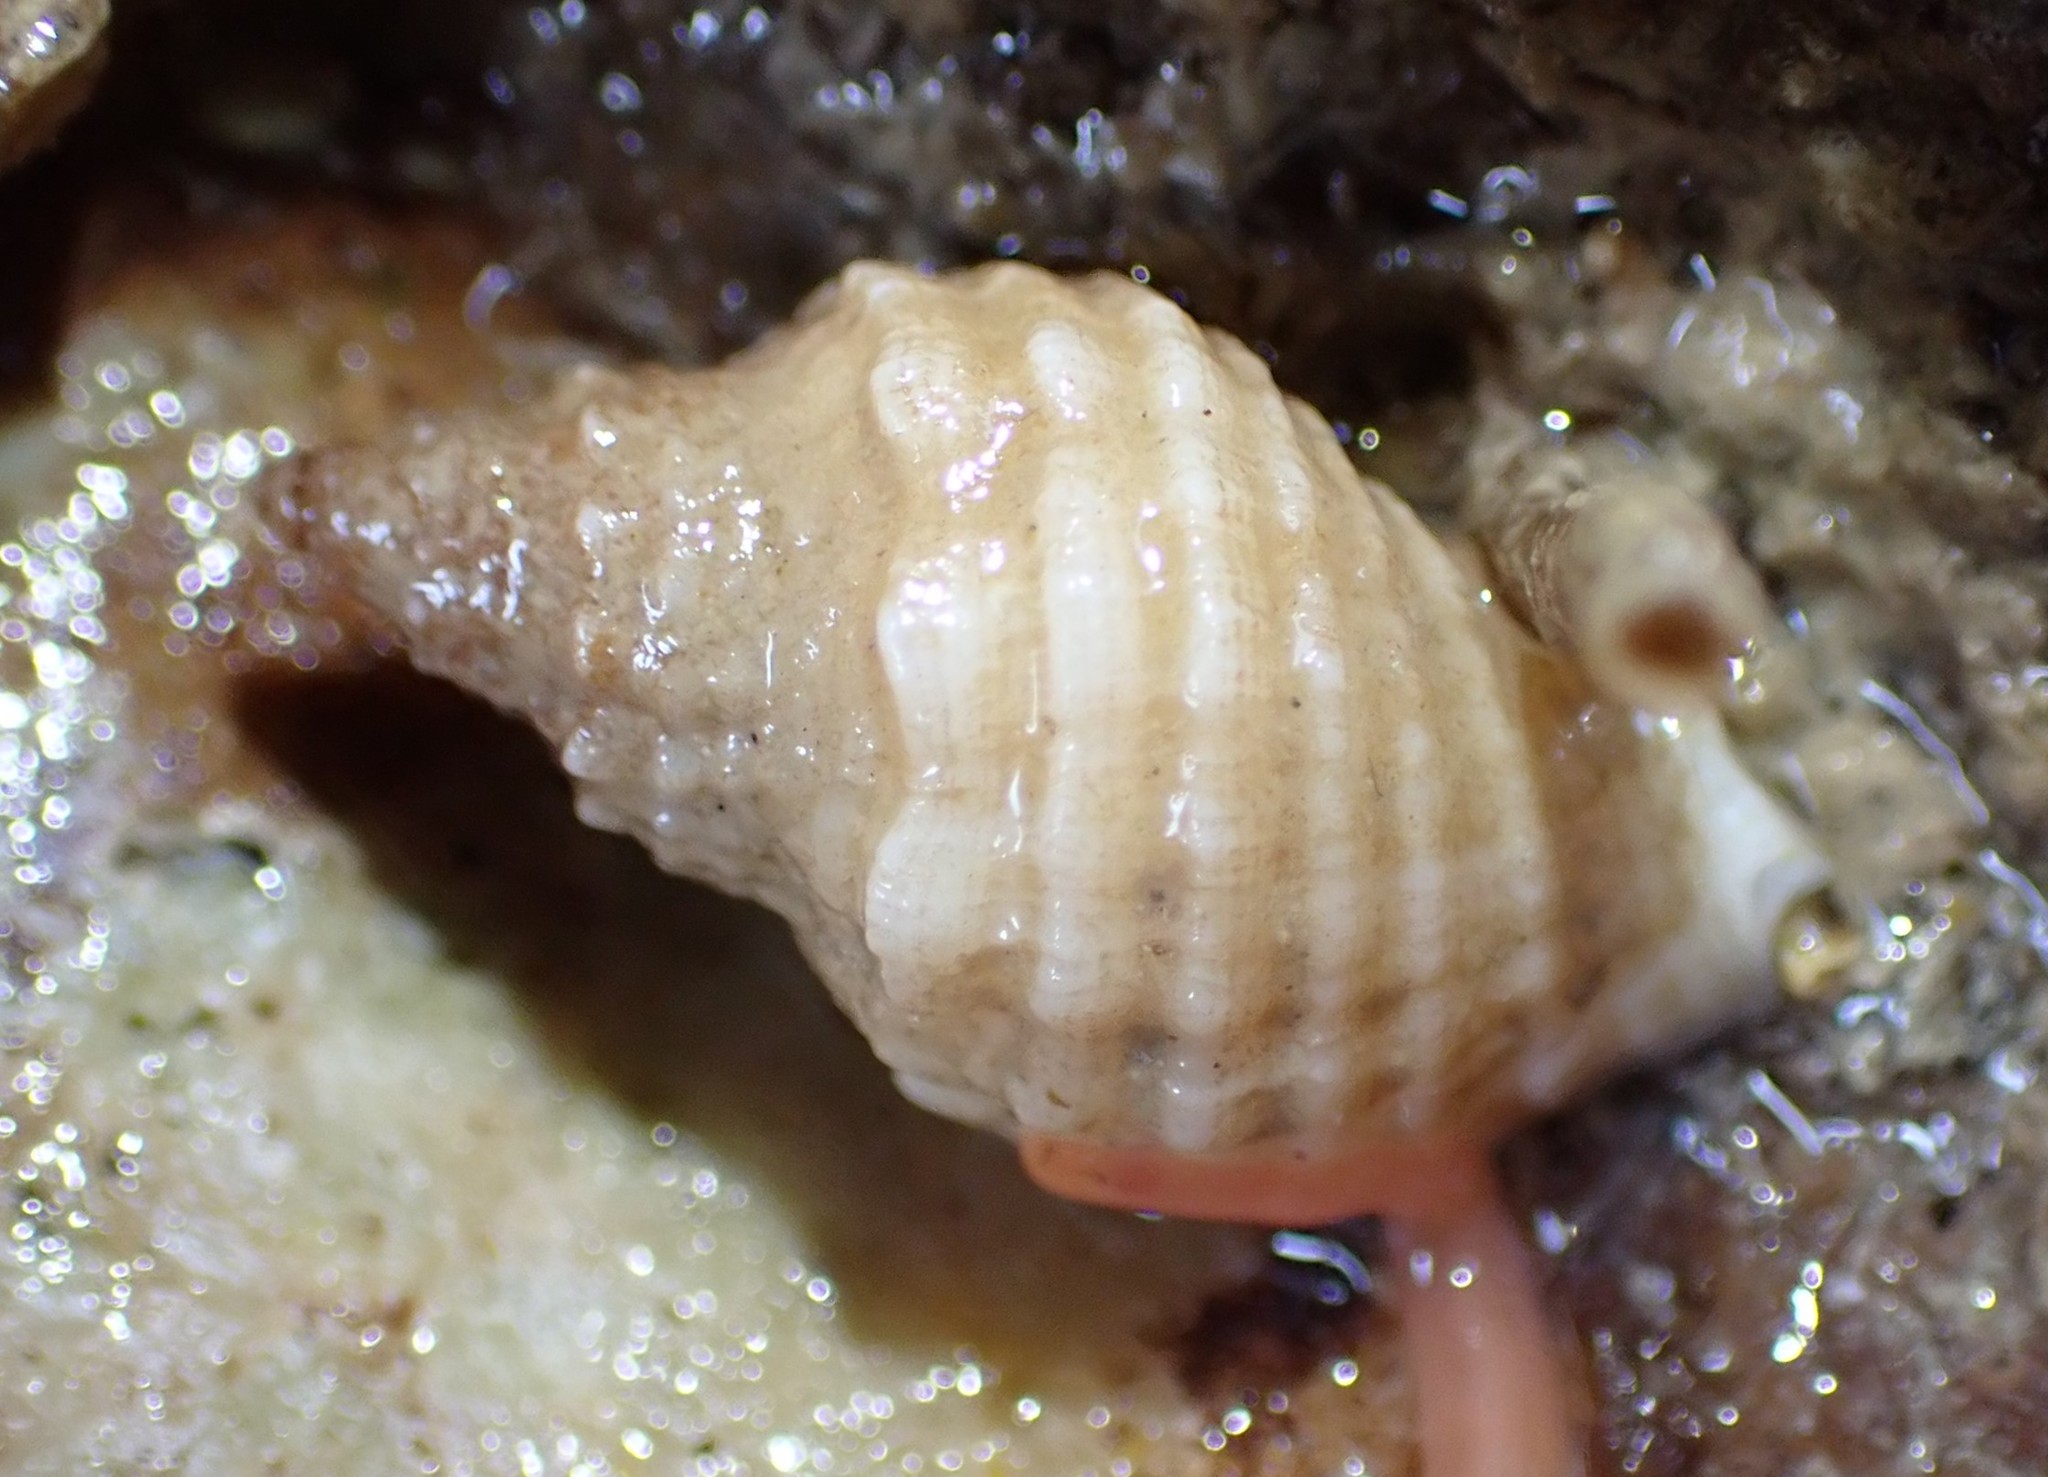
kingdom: Animalia
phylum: Mollusca
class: Gastropoda
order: Neogastropoda
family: Muricidae
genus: Dicathais
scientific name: Dicathais orbita
